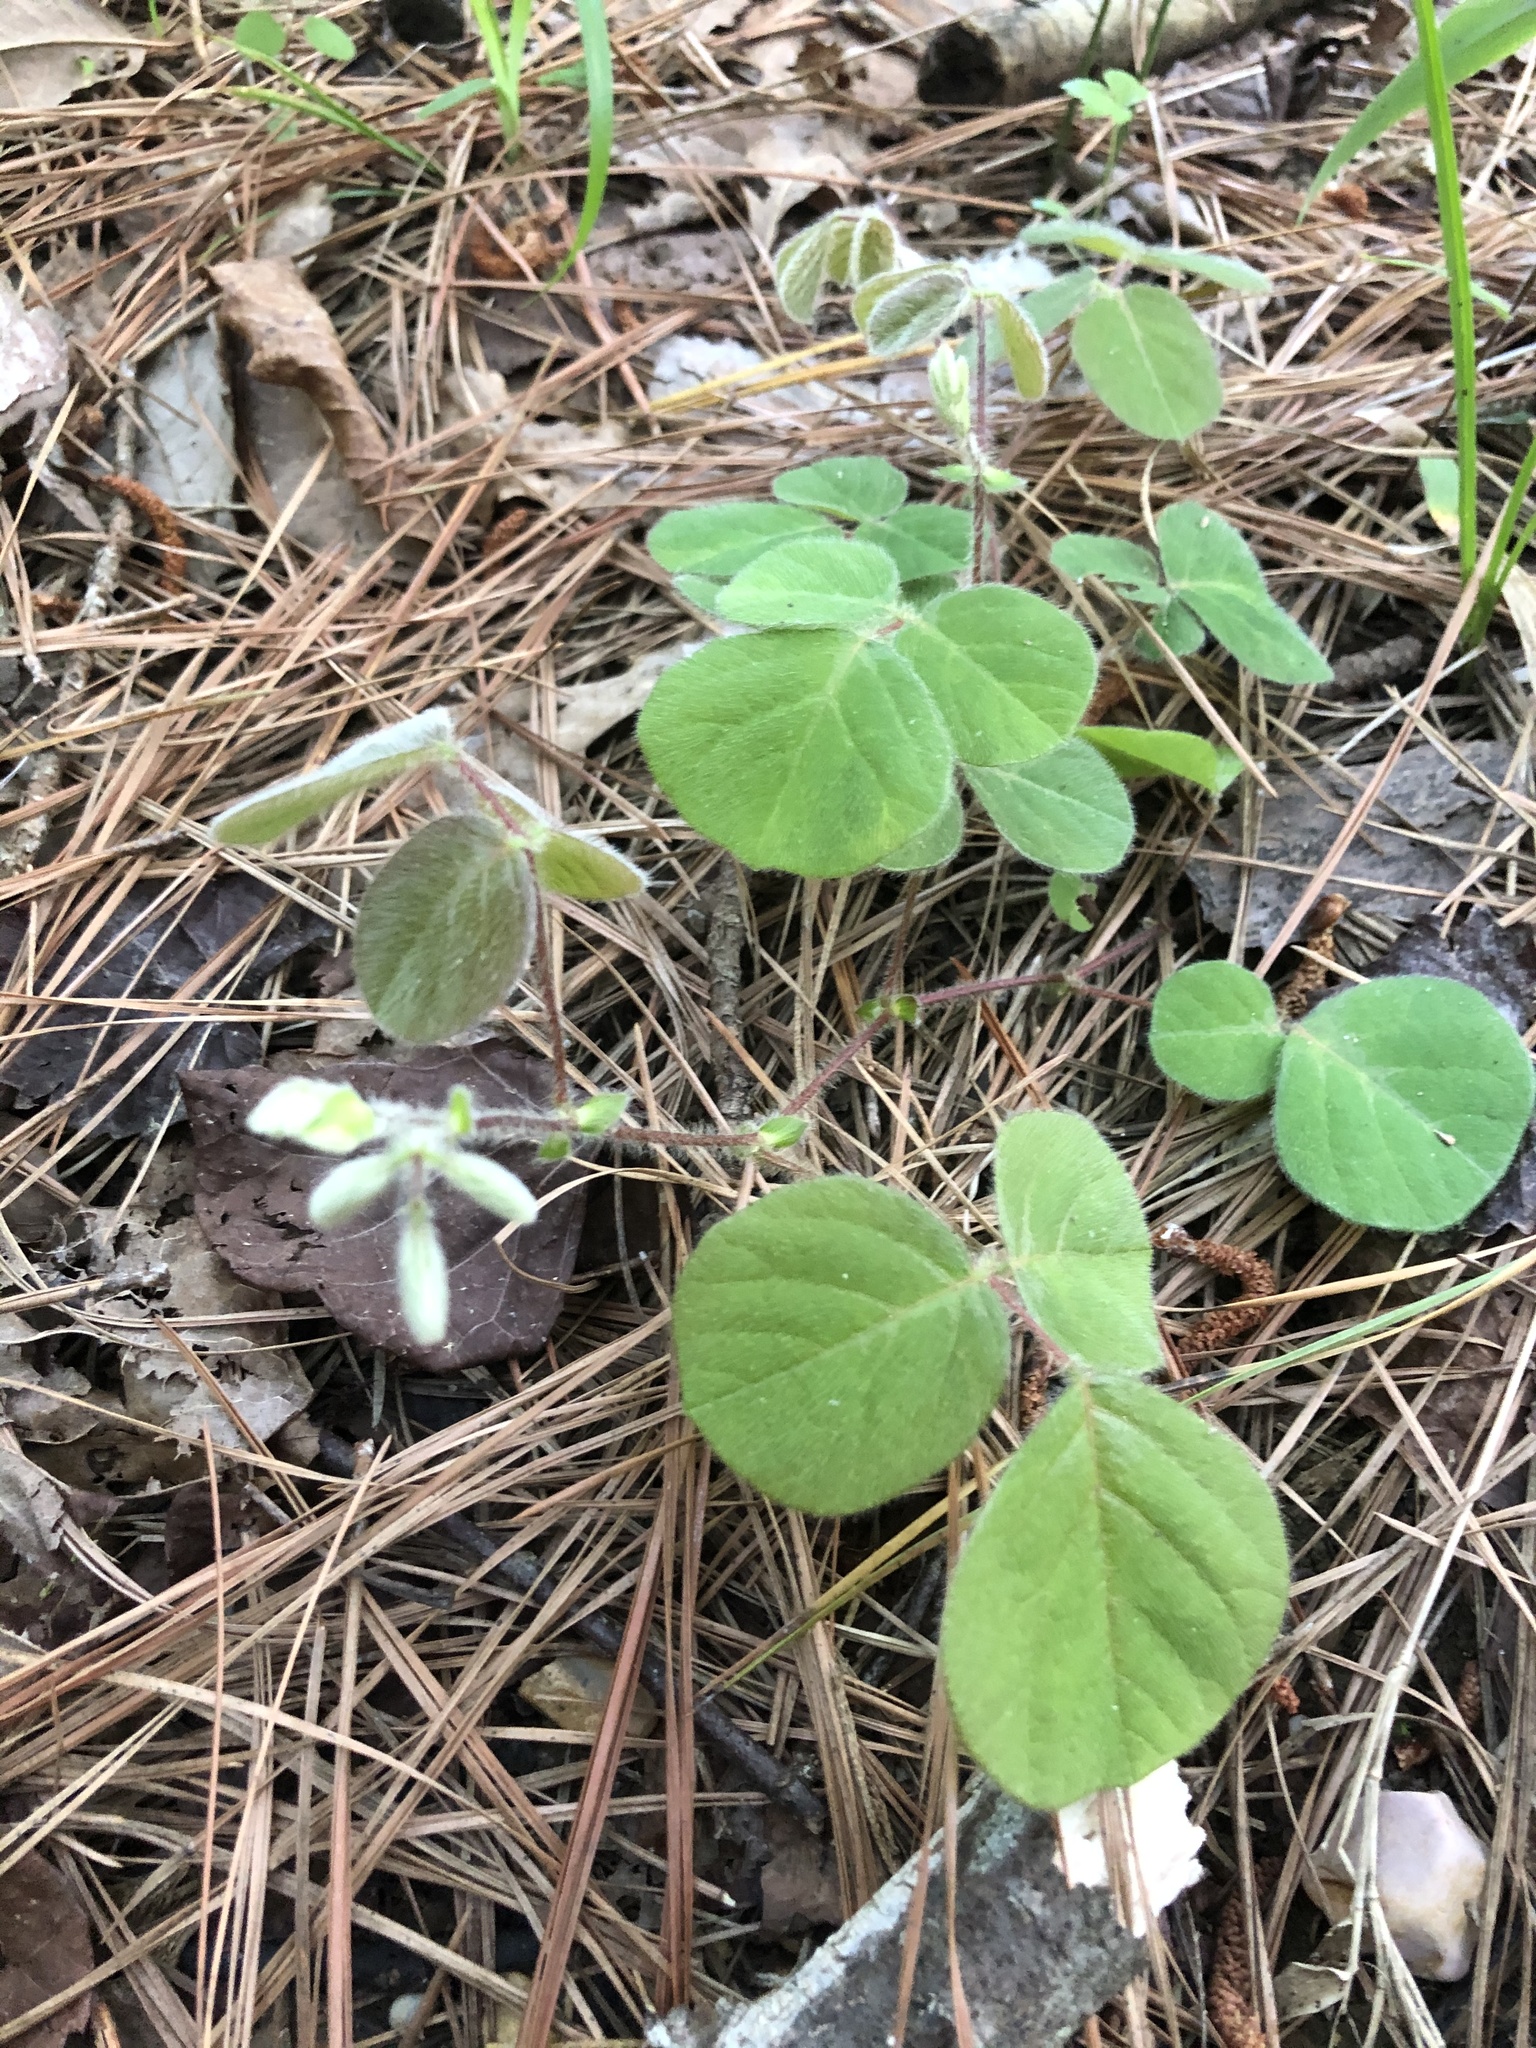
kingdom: Plantae
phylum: Tracheophyta
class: Magnoliopsida
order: Fabales
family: Fabaceae
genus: Desmodium
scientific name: Desmodium rotundifolium
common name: Dollarleaf
